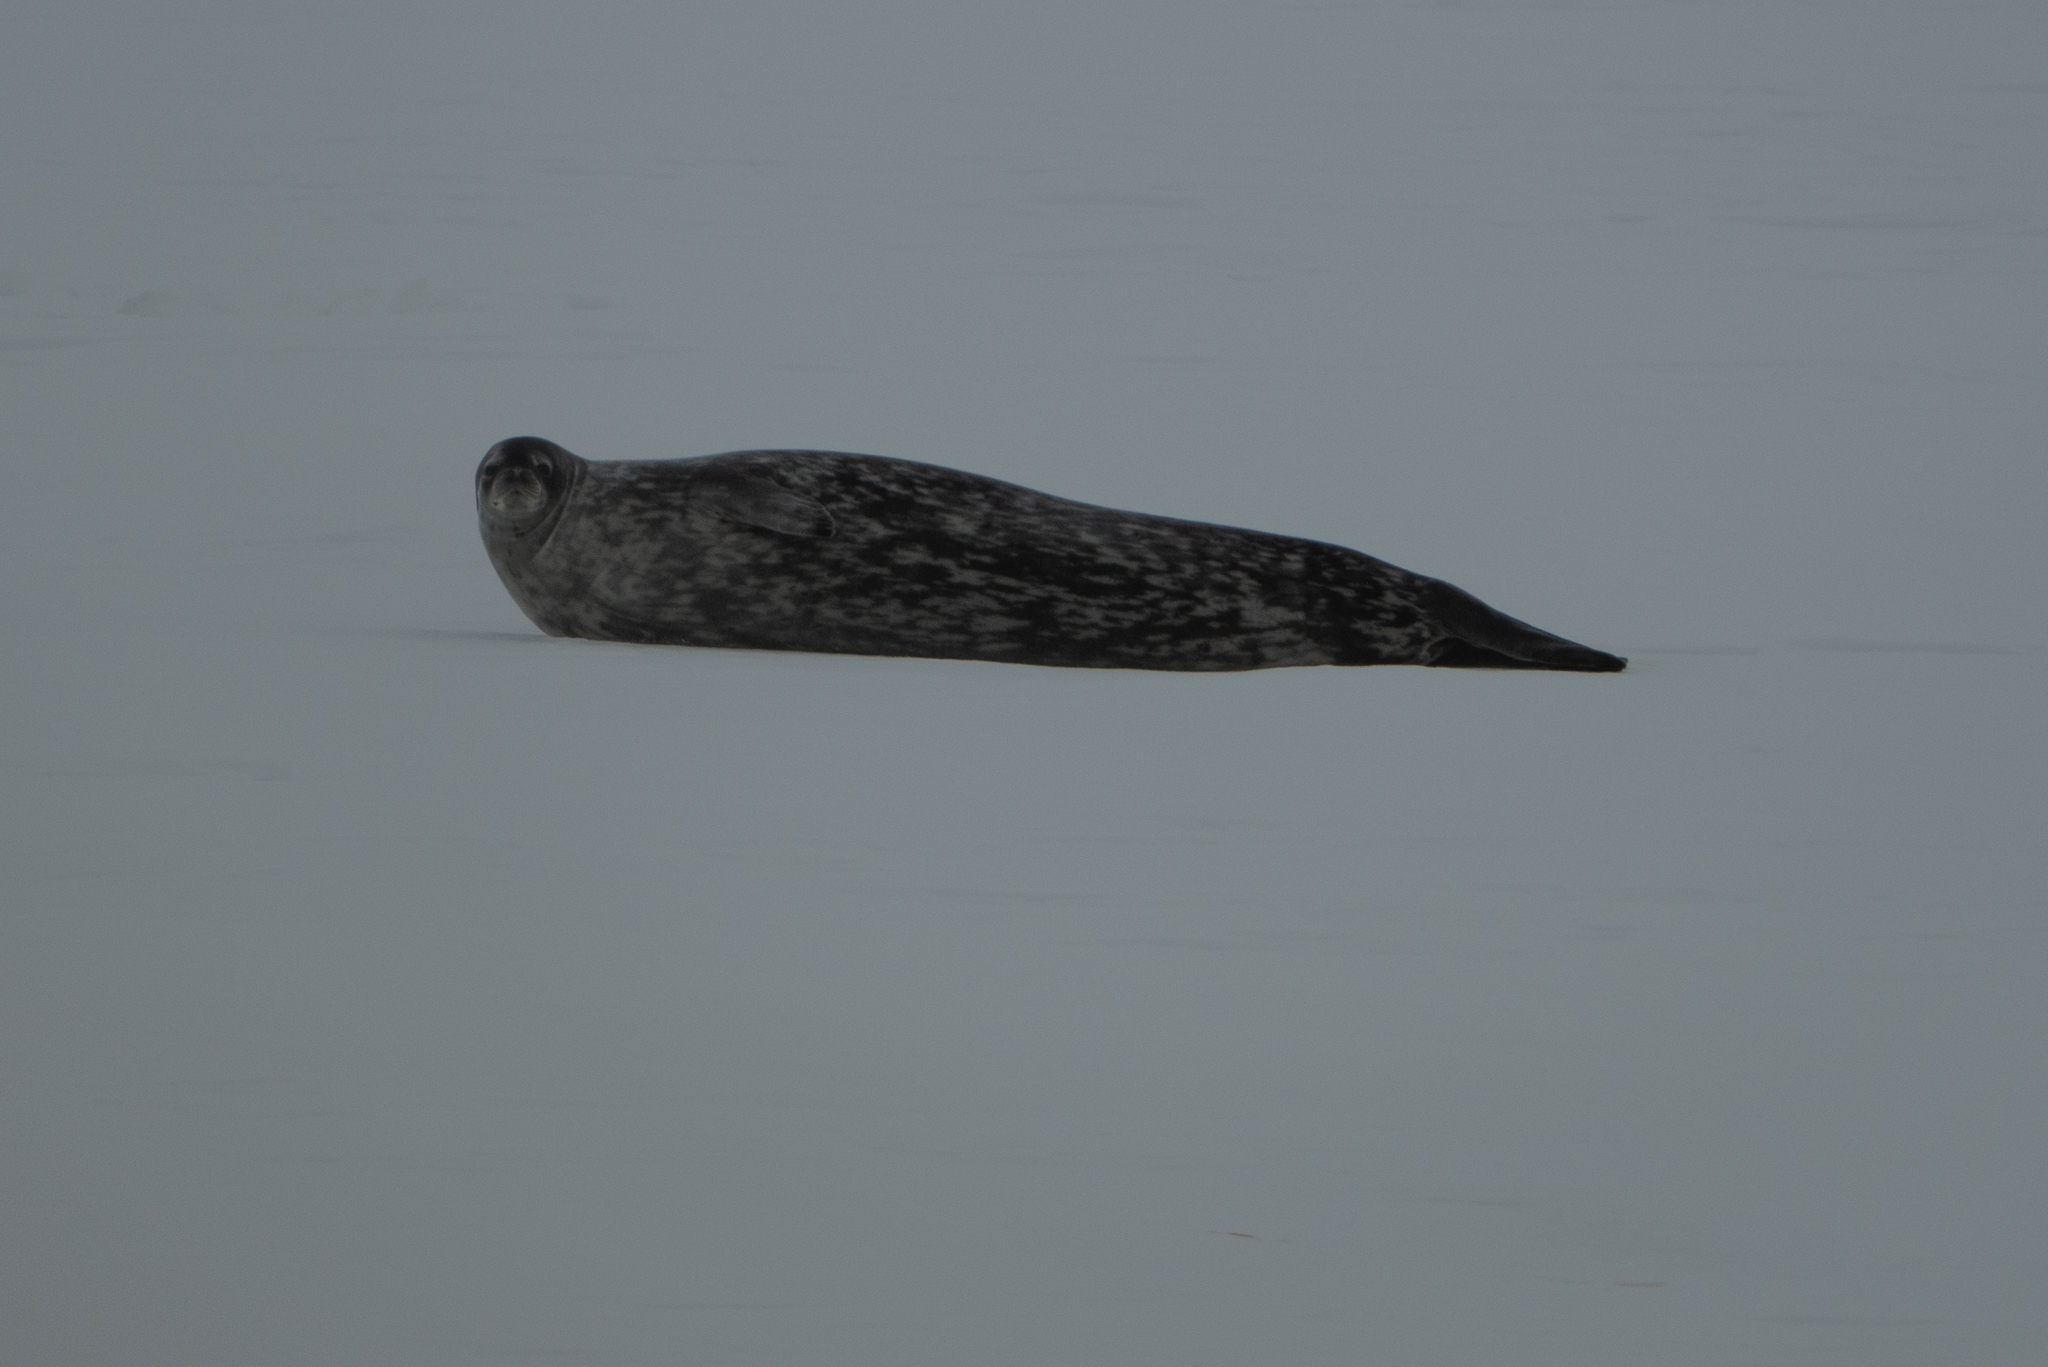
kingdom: Animalia
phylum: Chordata
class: Mammalia
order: Carnivora
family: Phocidae
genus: Leptonychotes
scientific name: Leptonychotes weddellii
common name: Weddell seal
